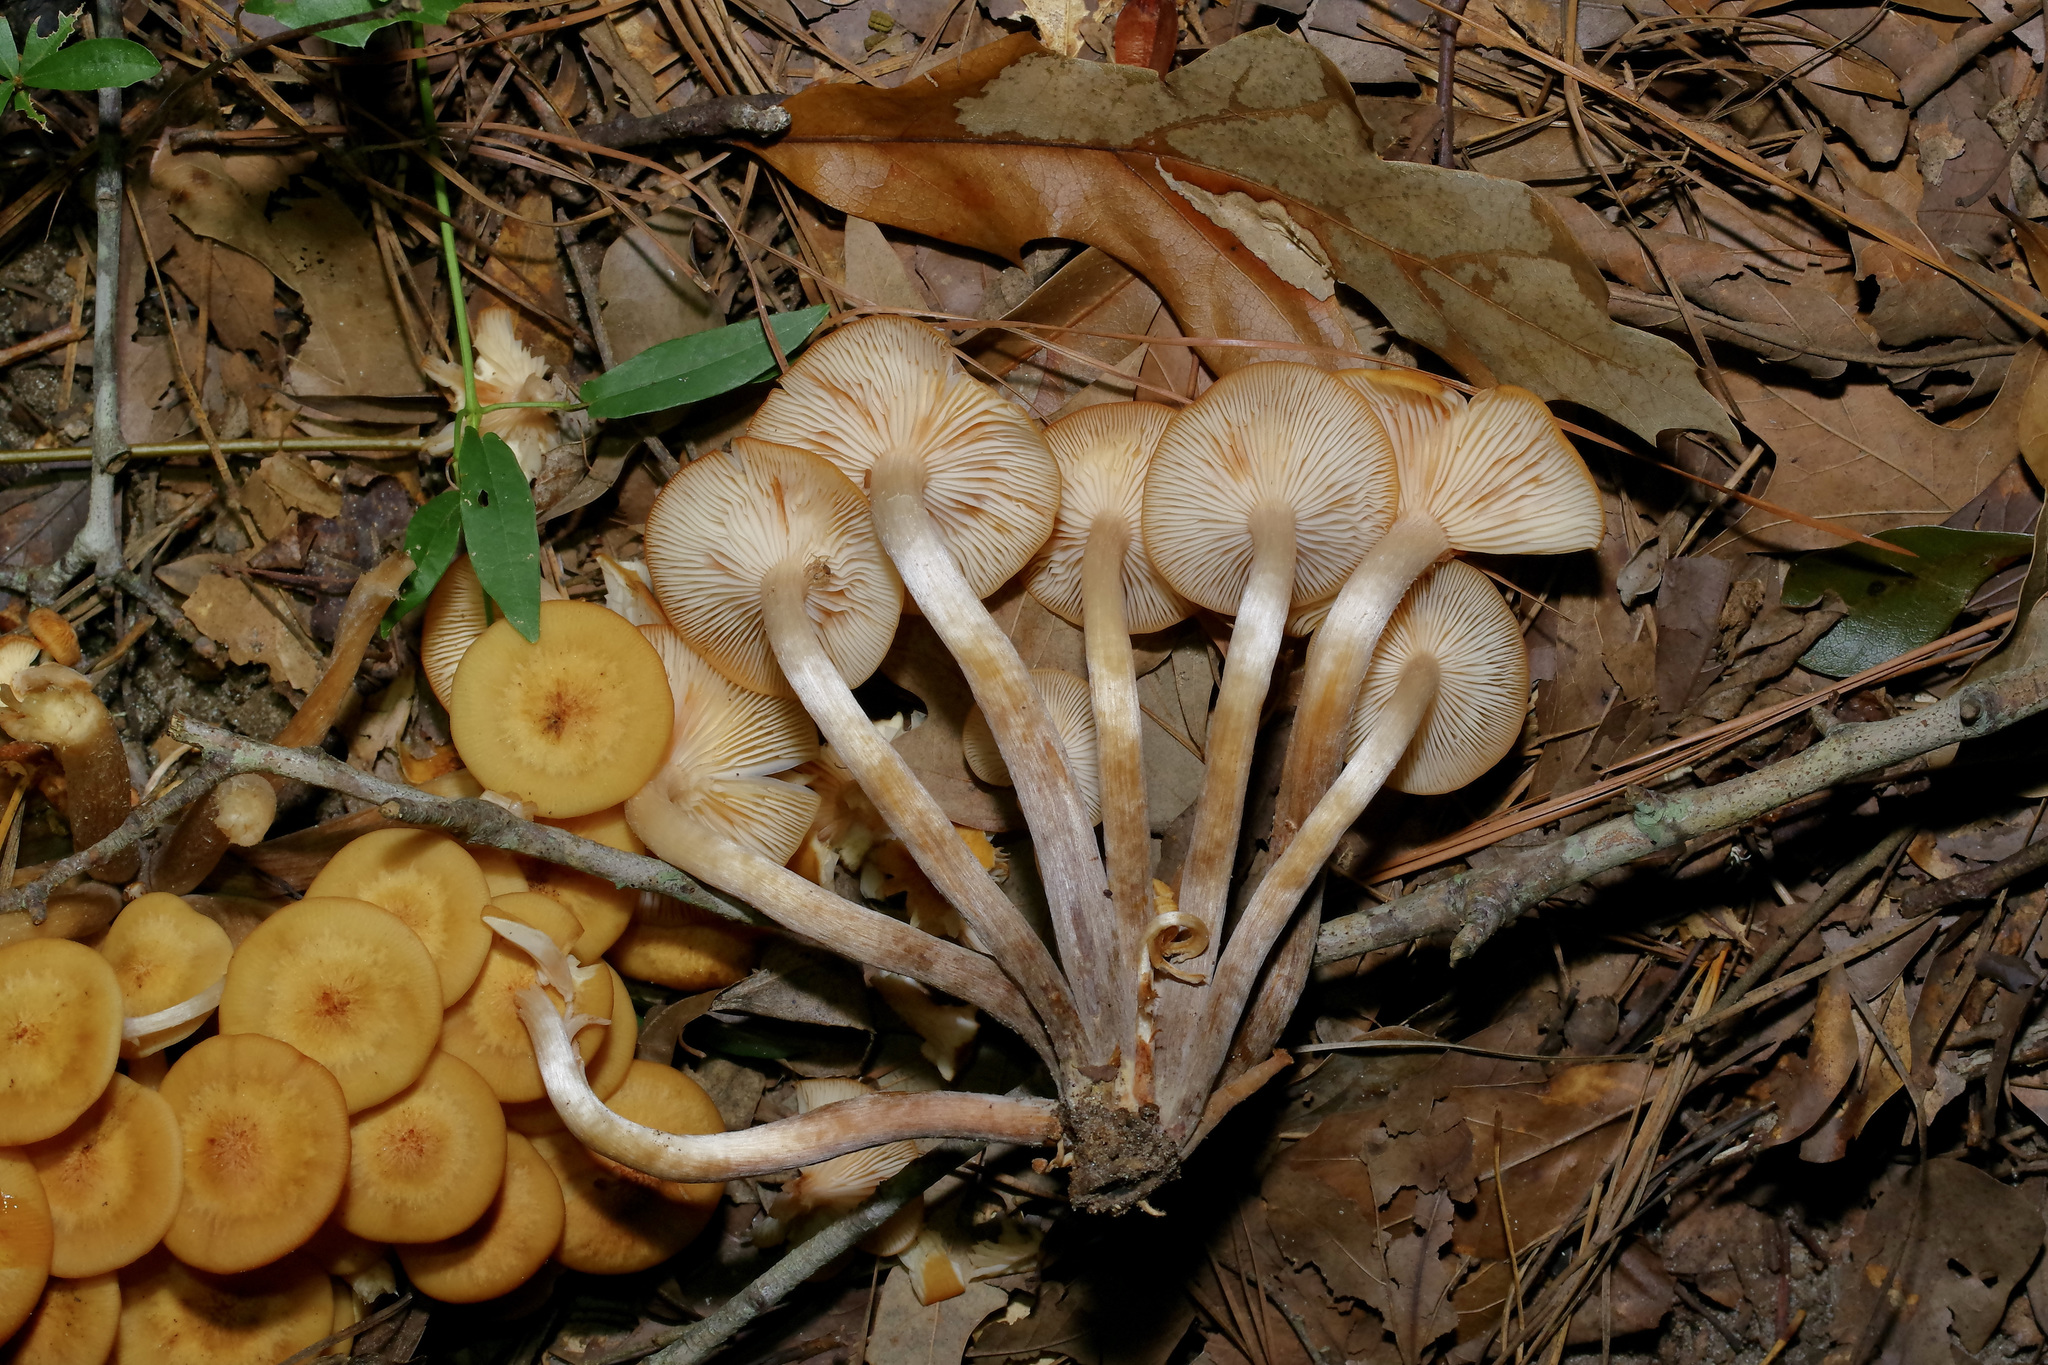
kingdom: Fungi
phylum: Basidiomycota
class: Agaricomycetes
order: Agaricales
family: Physalacriaceae
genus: Desarmillaria
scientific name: Desarmillaria caespitosa
